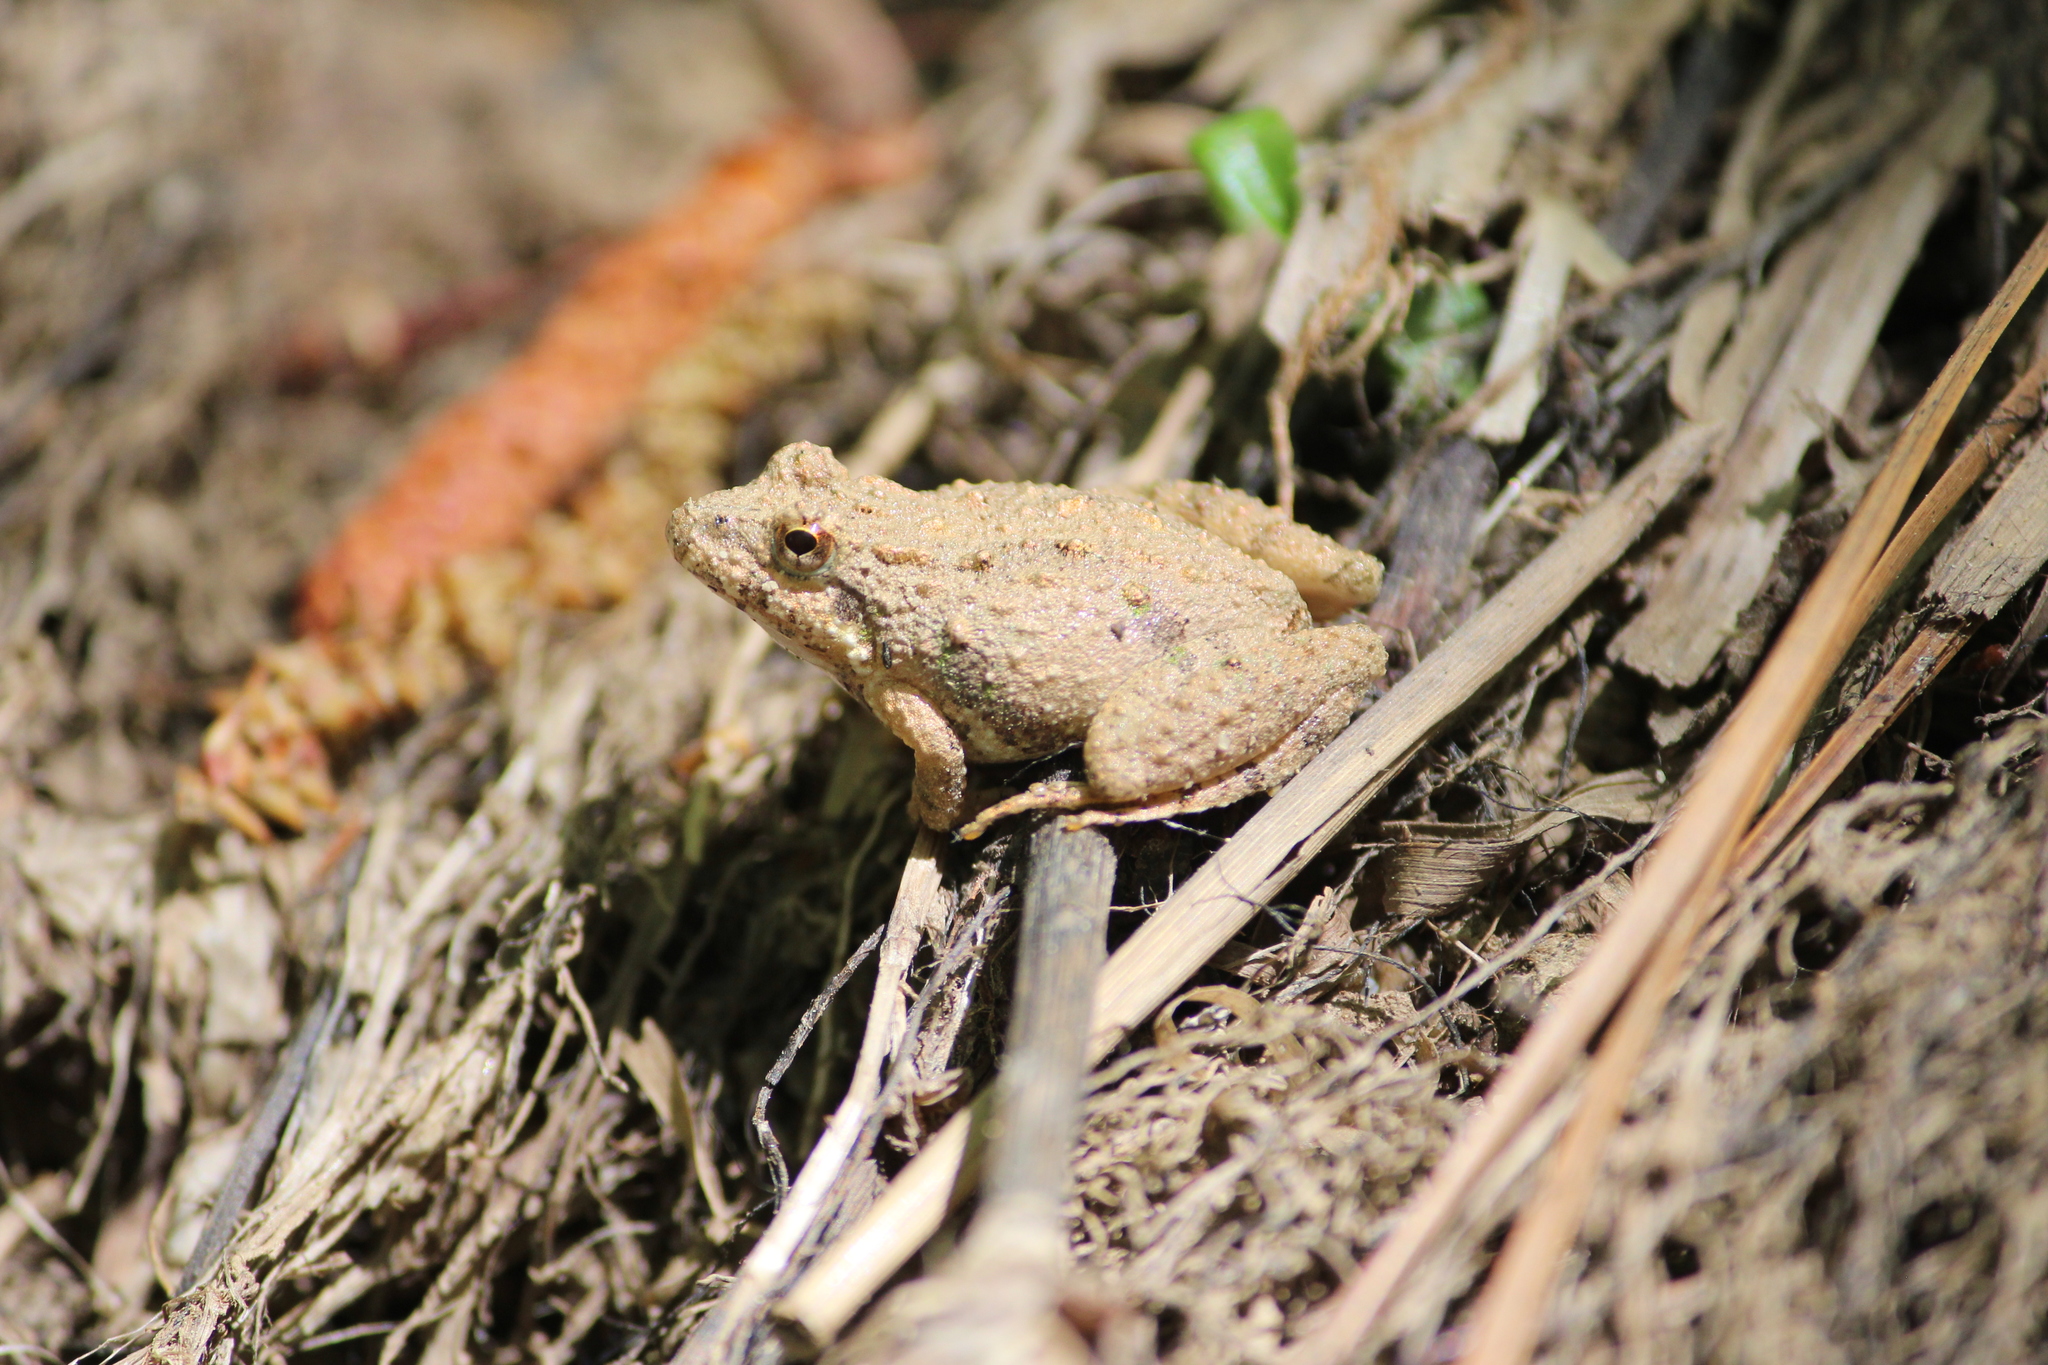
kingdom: Animalia
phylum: Chordata
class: Amphibia
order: Anura
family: Hylidae
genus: Acris
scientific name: Acris crepitans
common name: Northern cricket frog
